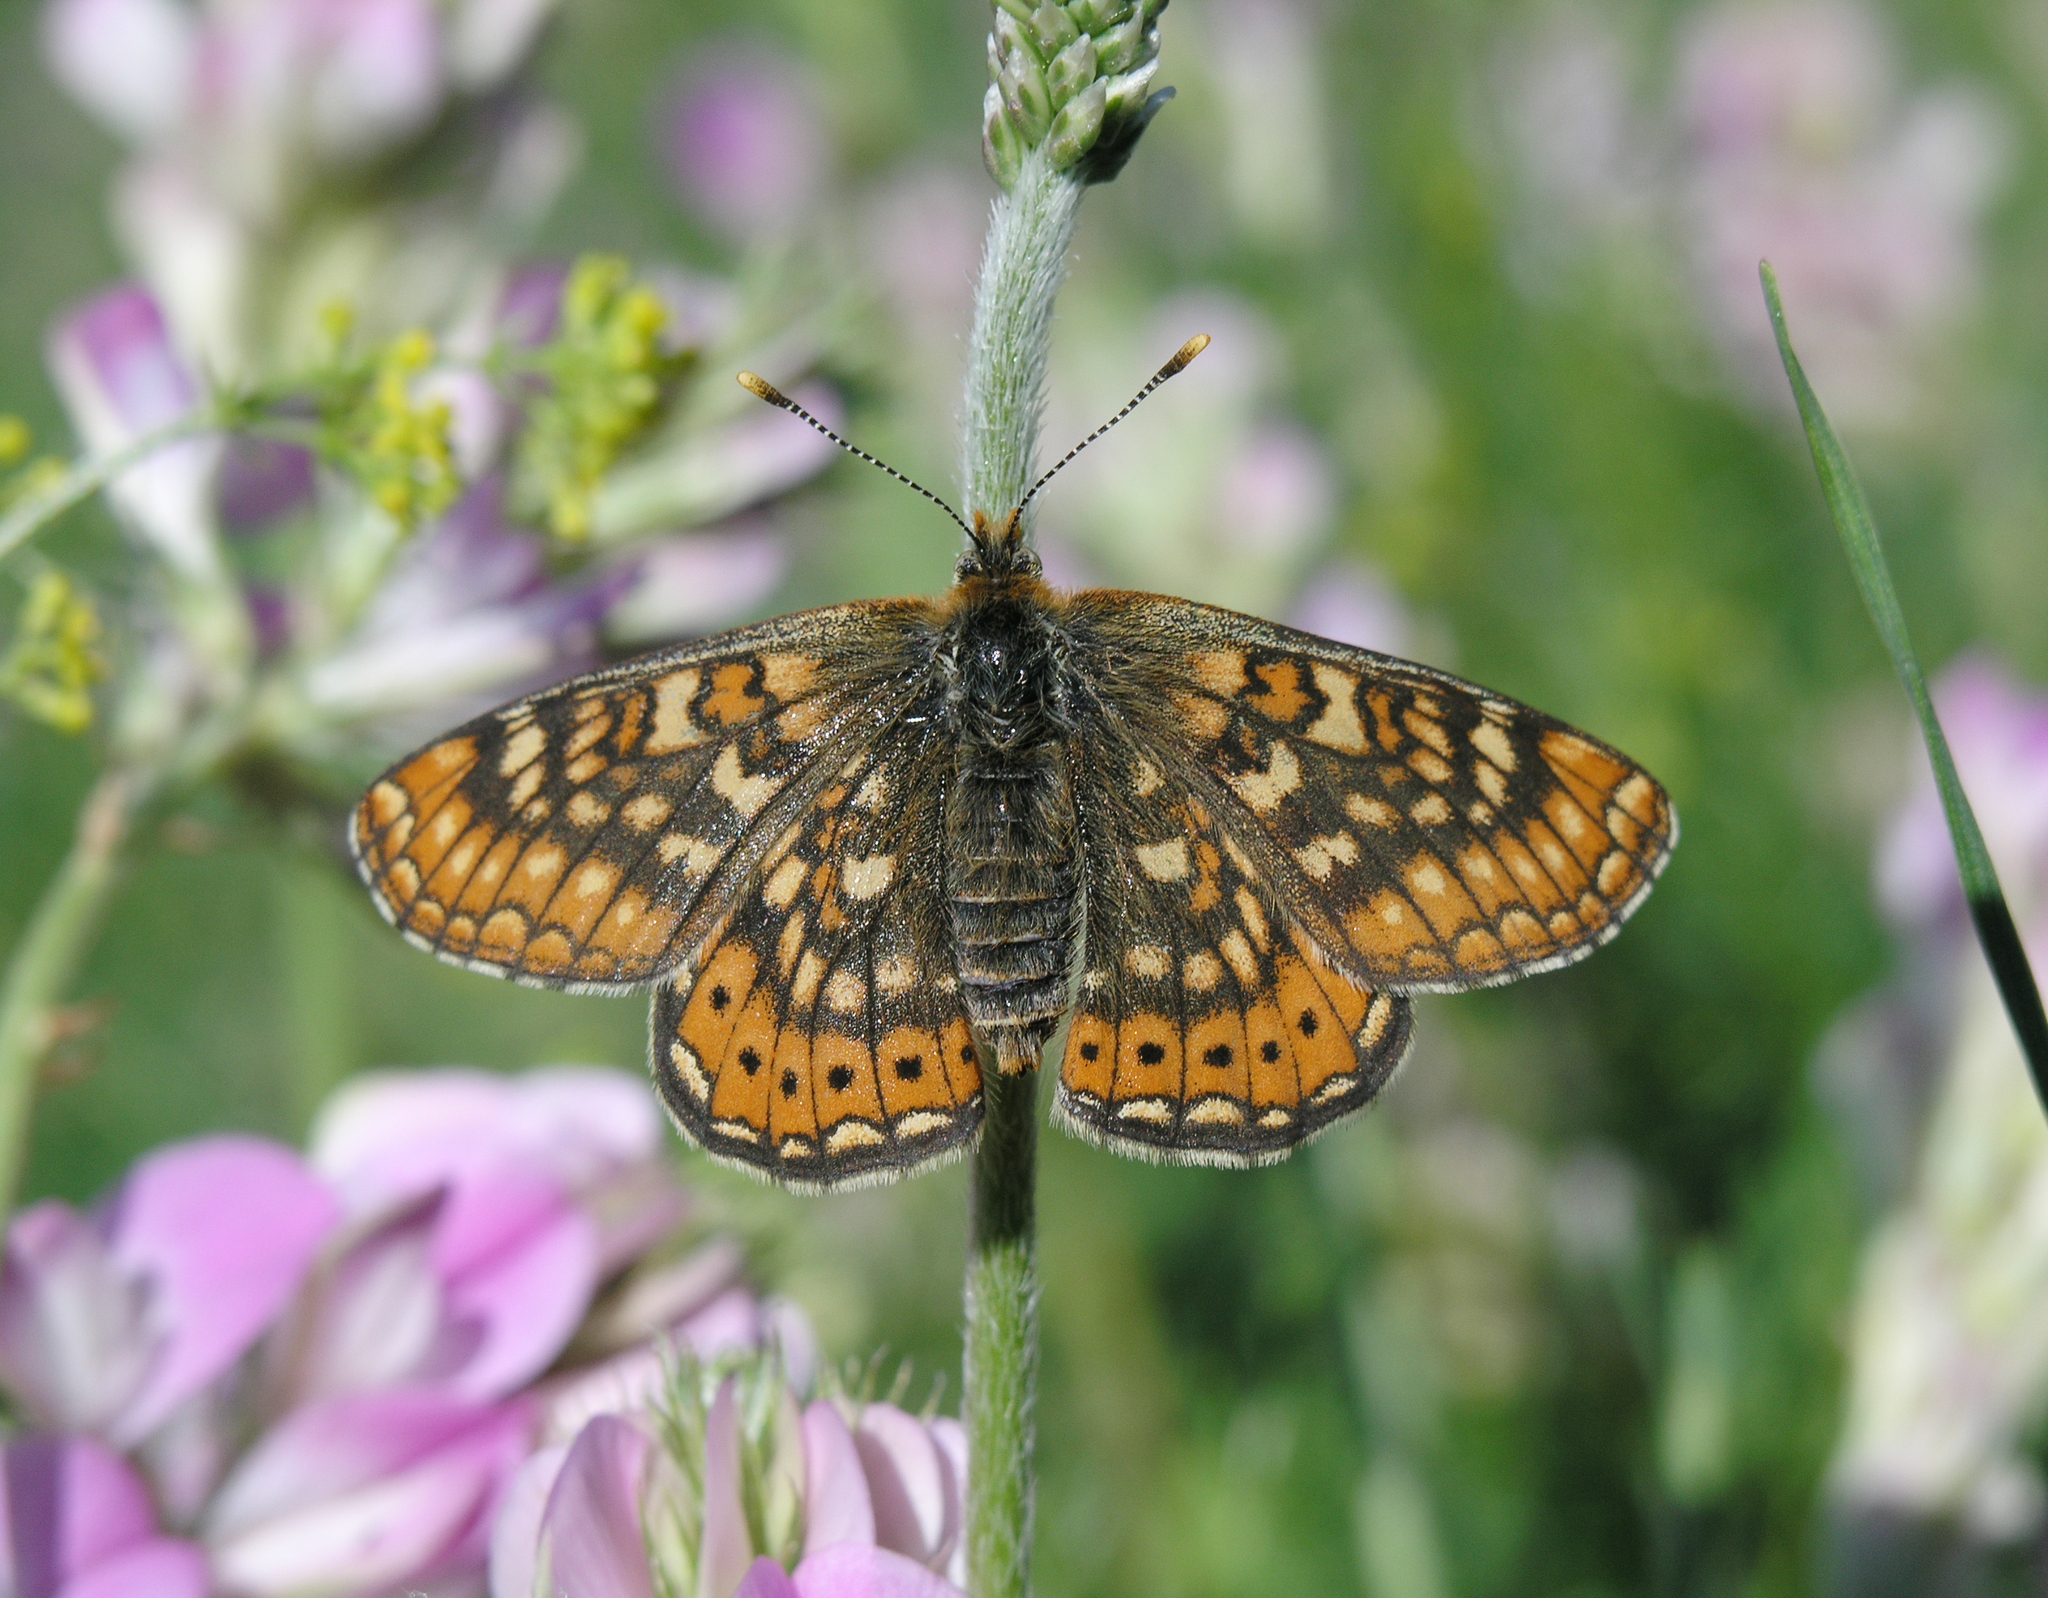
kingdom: Animalia
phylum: Arthropoda
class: Insecta
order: Lepidoptera
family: Nymphalidae
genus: Euphydryas
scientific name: Euphydryas aurinia
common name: Marsh fritillary
